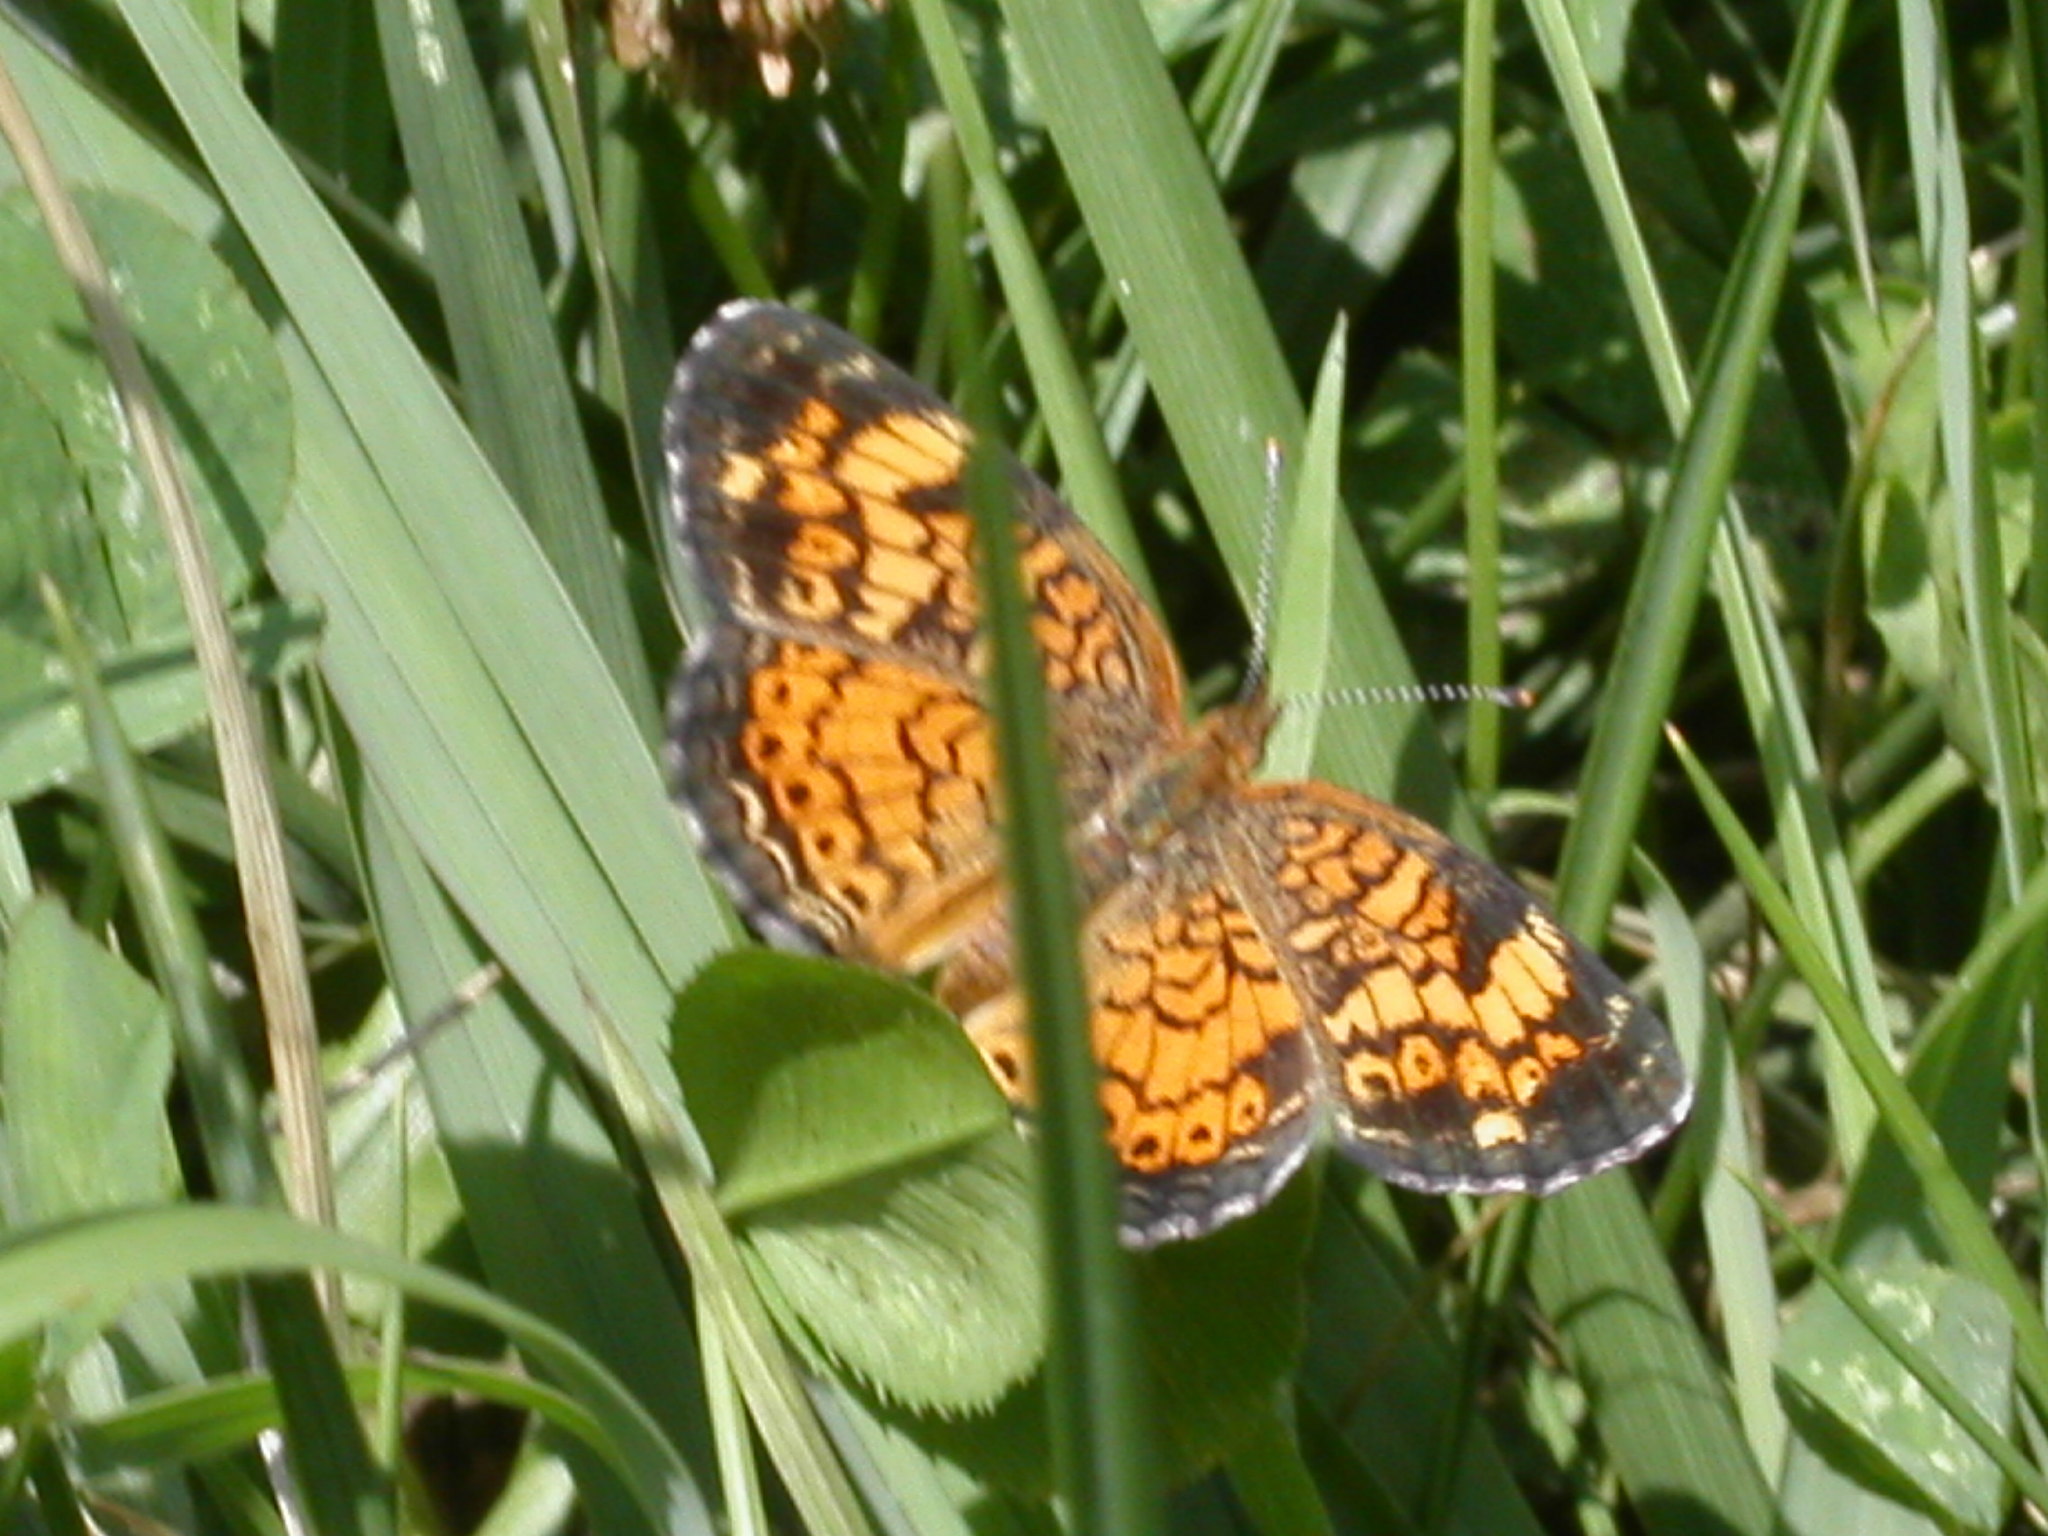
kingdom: Animalia
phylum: Arthropoda
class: Insecta
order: Lepidoptera
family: Nymphalidae
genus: Phyciodes
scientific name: Phyciodes tharos
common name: Pearl crescent
